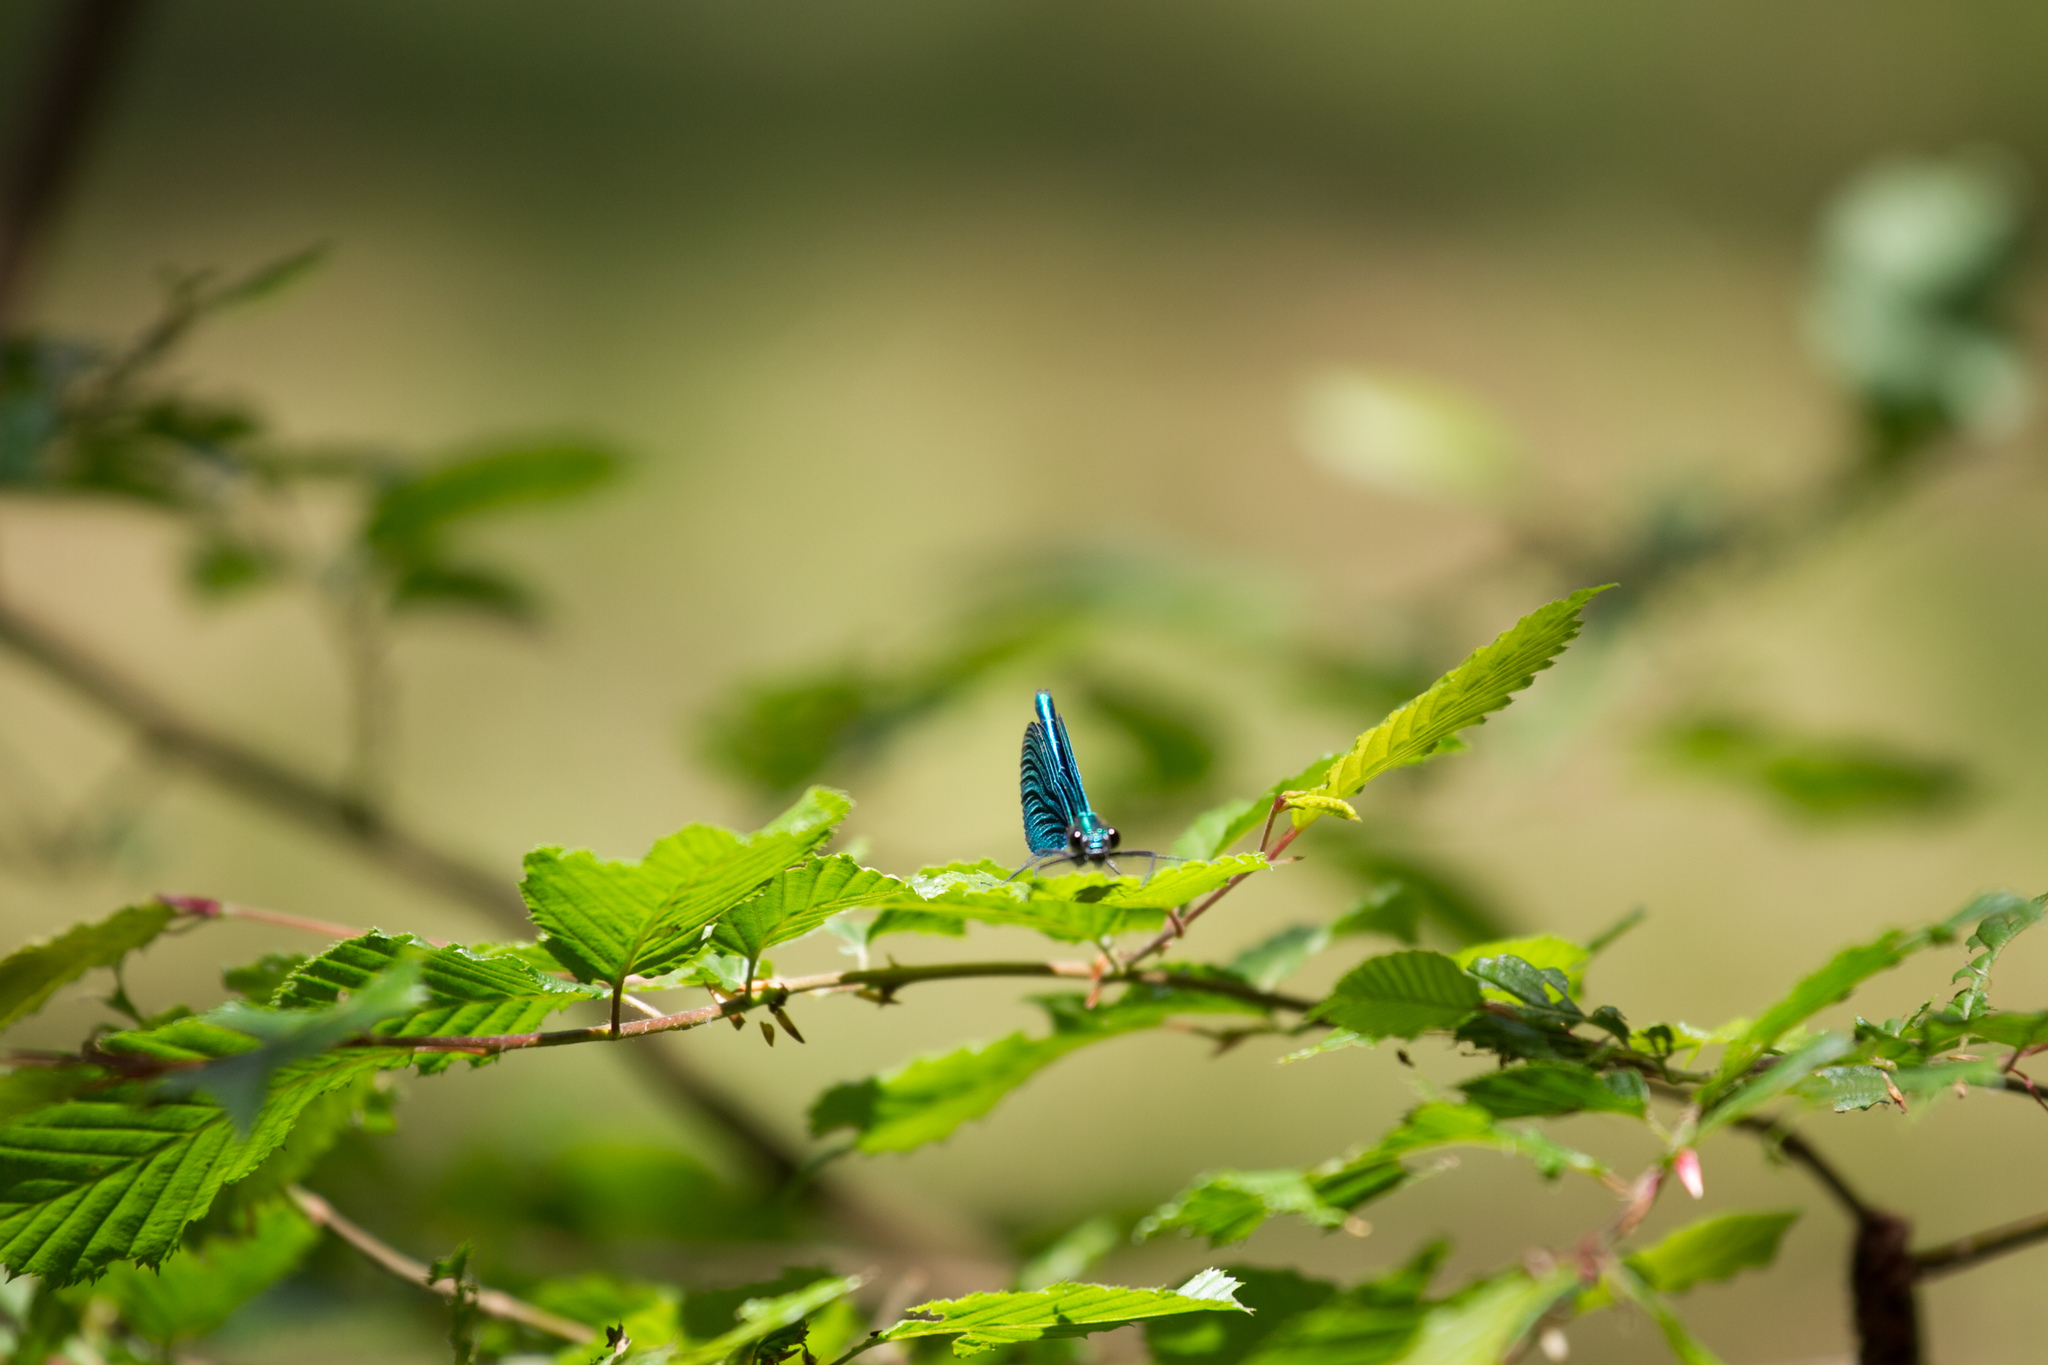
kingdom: Animalia
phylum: Arthropoda
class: Insecta
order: Odonata
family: Calopterygidae
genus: Calopteryx
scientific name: Calopteryx virgo
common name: Beautiful demoiselle
